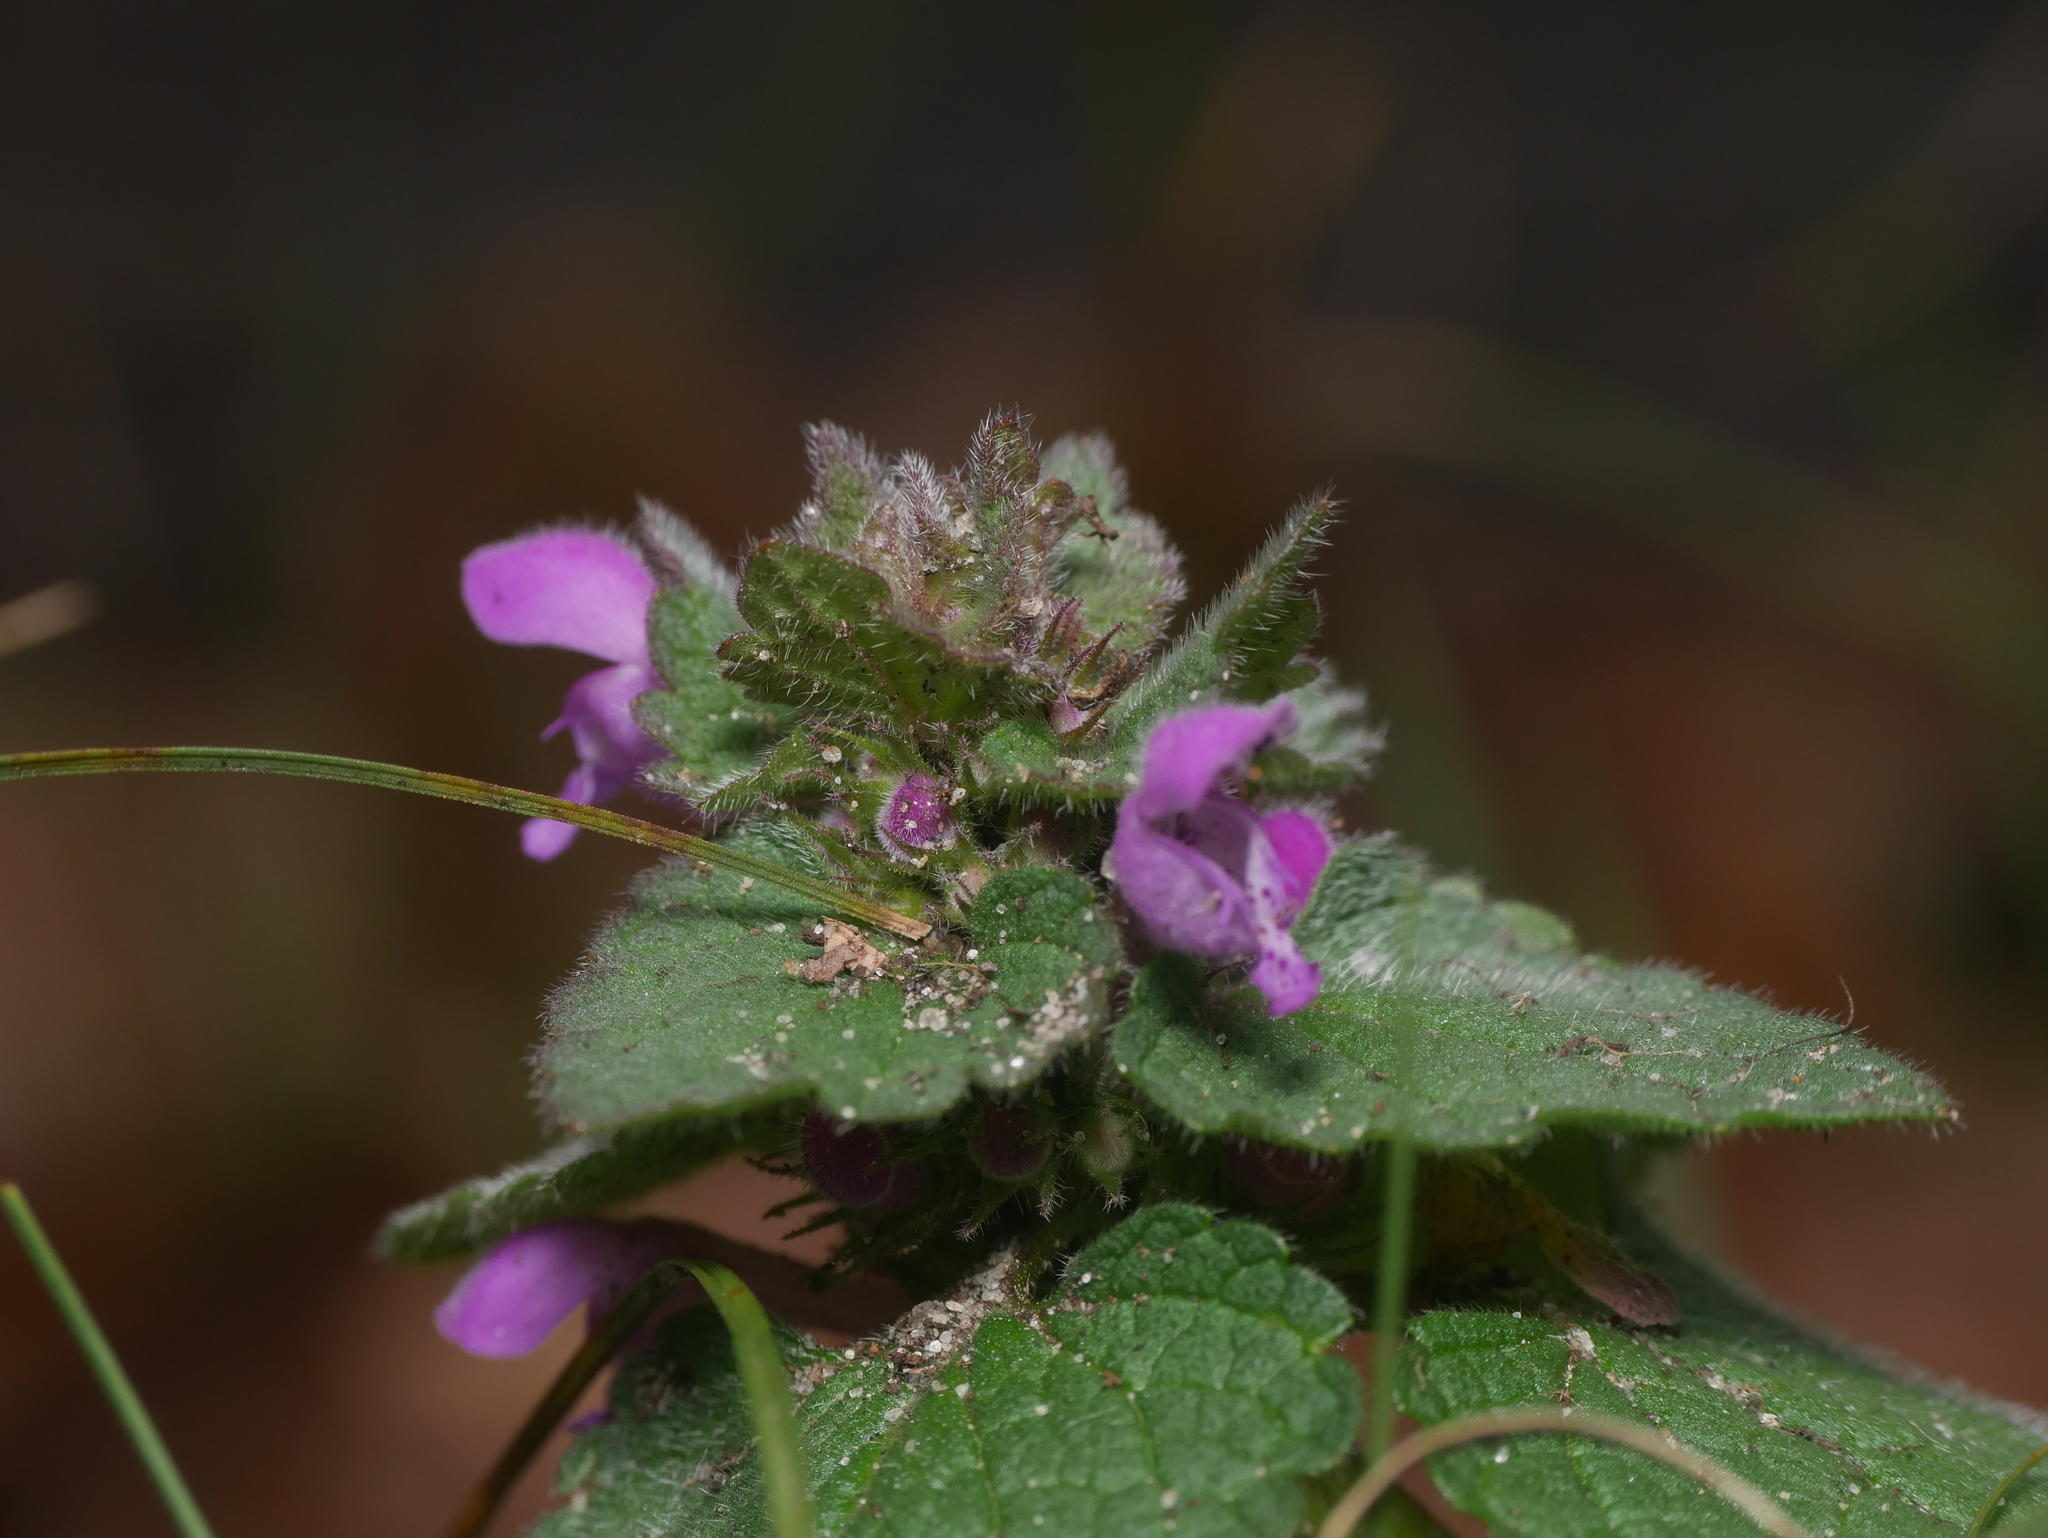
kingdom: Plantae
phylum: Tracheophyta
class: Magnoliopsida
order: Lamiales
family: Lamiaceae
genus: Lamium
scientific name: Lamium purpureum
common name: Red dead-nettle
